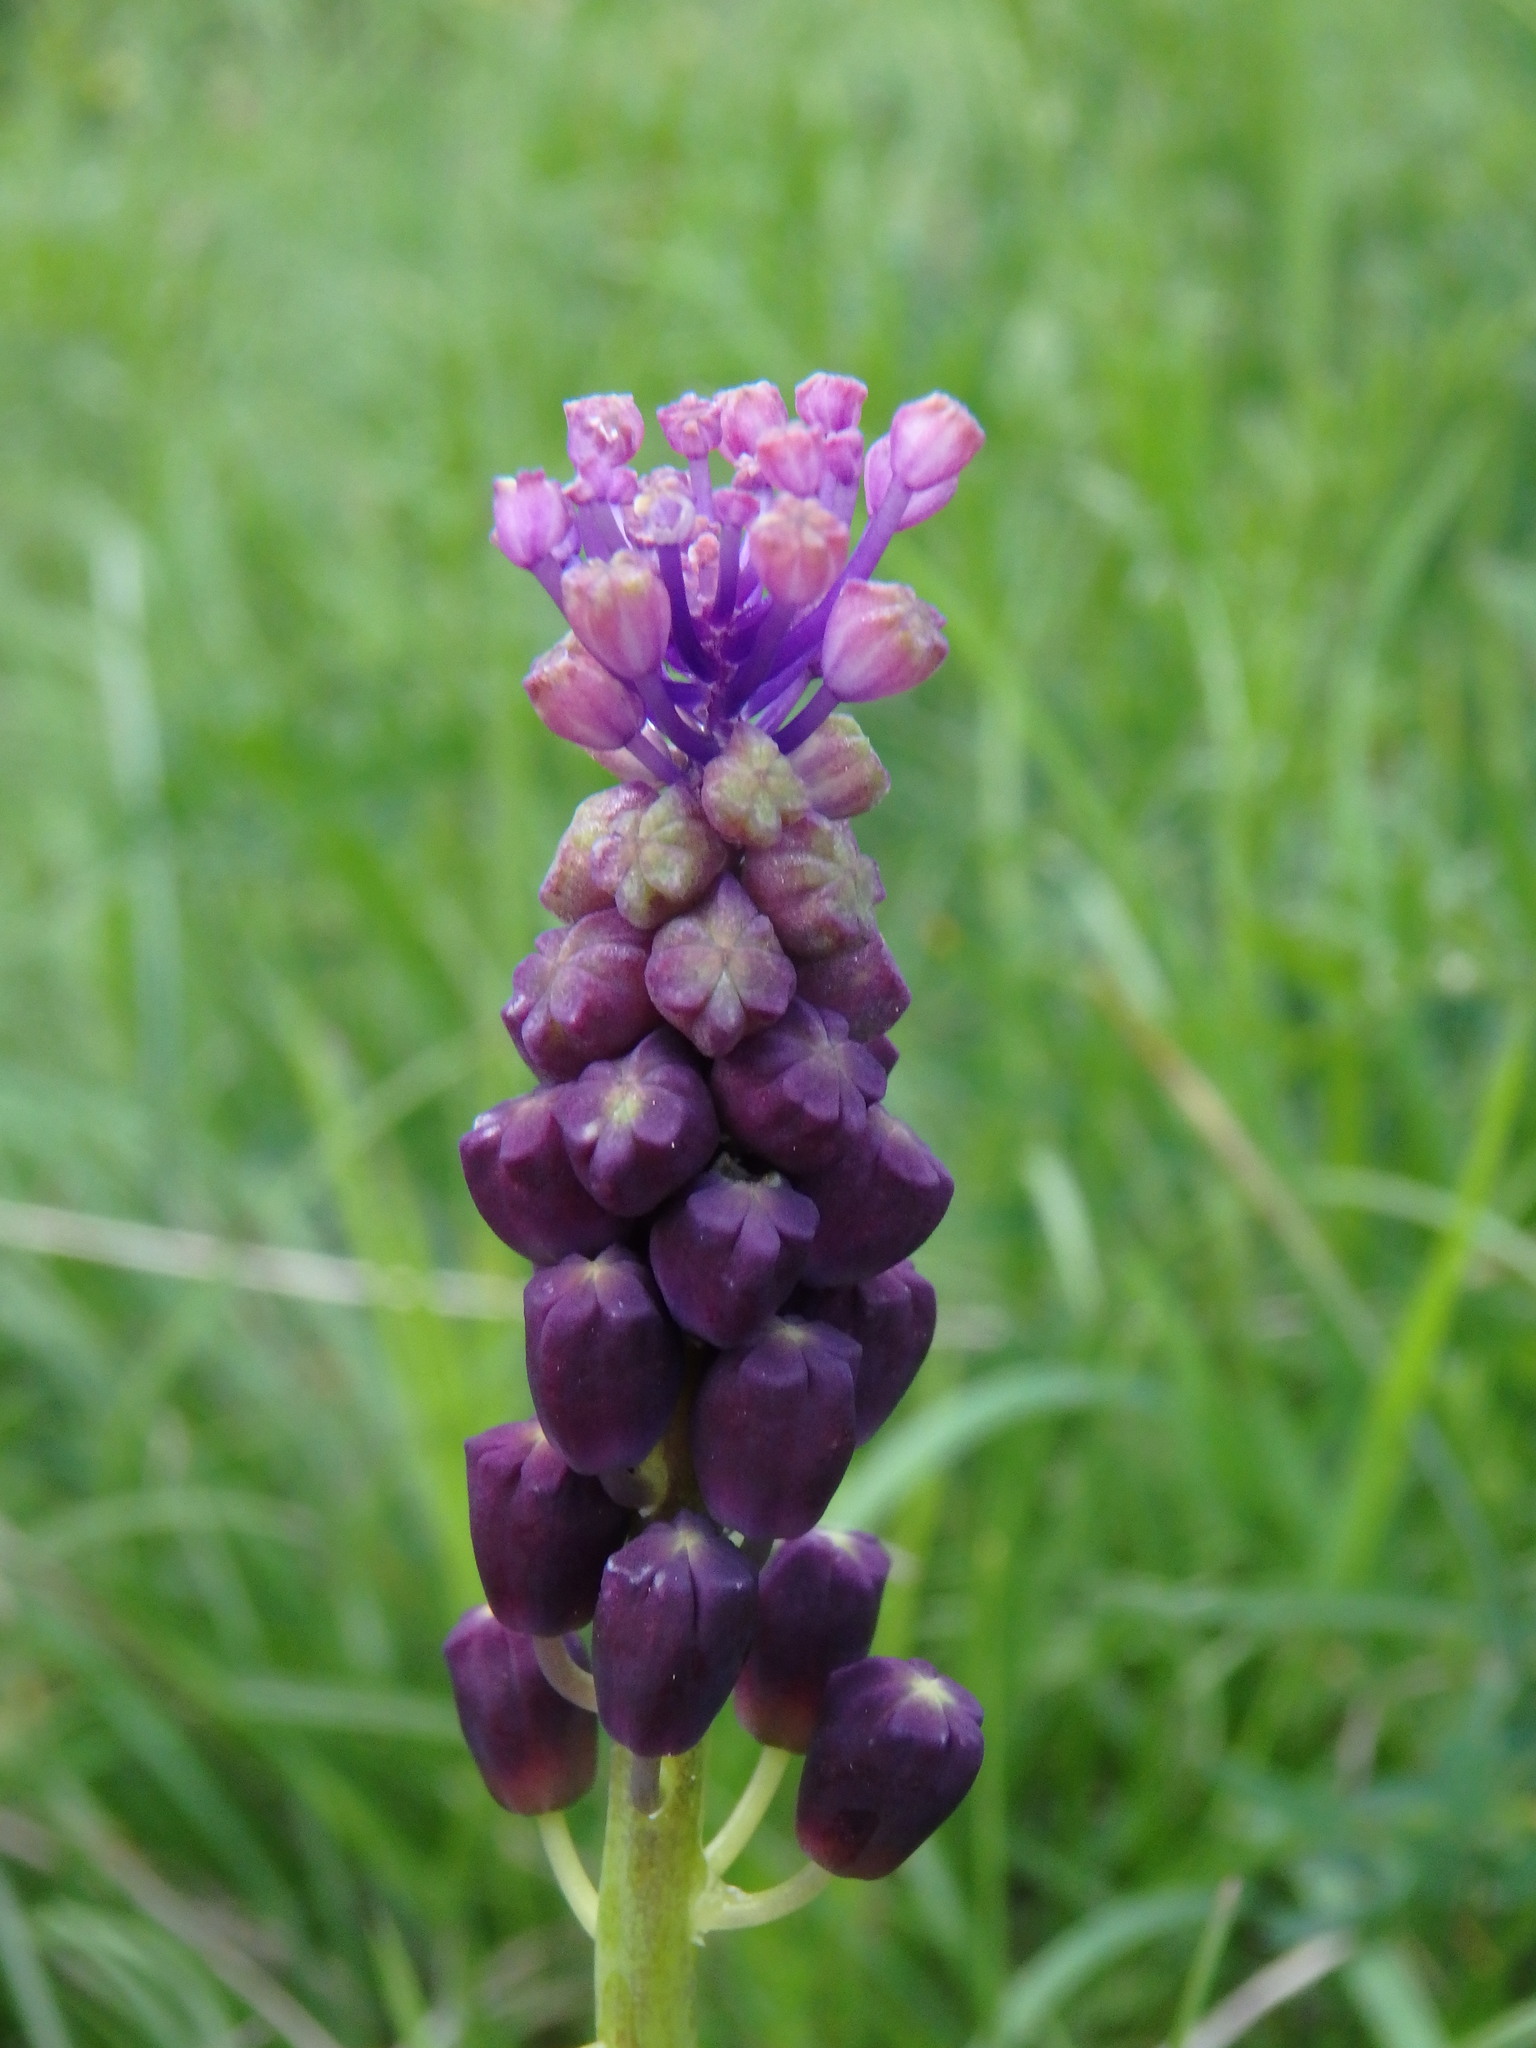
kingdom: Plantae
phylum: Tracheophyta
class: Liliopsida
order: Asparagales
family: Asparagaceae
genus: Muscari
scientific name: Muscari comosum
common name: Tassel hyacinth
